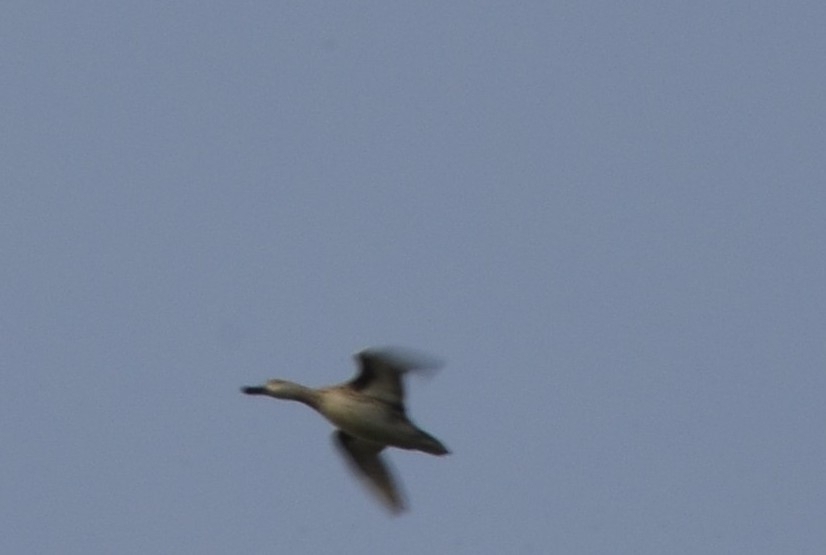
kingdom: Animalia
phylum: Chordata
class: Aves
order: Anseriformes
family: Anatidae
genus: Spatula
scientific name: Spatula querquedula
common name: Garganey
